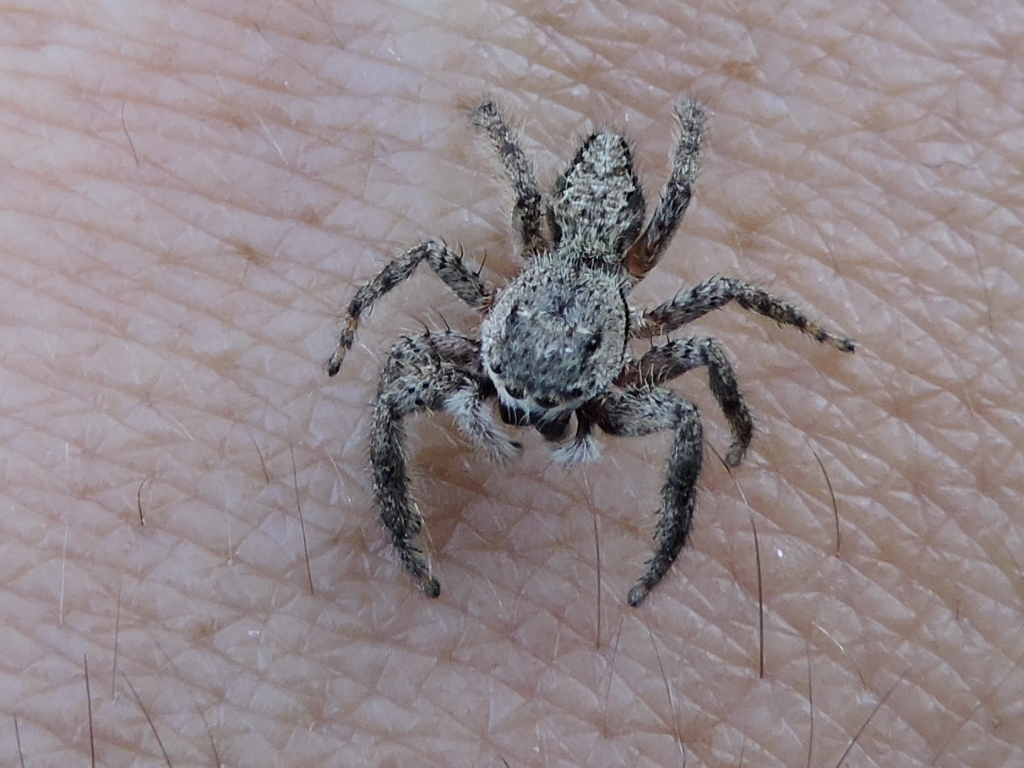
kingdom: Animalia
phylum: Arthropoda
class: Arachnida
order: Araneae
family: Salticidae
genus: Platycryptus
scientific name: Platycryptus undatus
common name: Tan jumping spider
